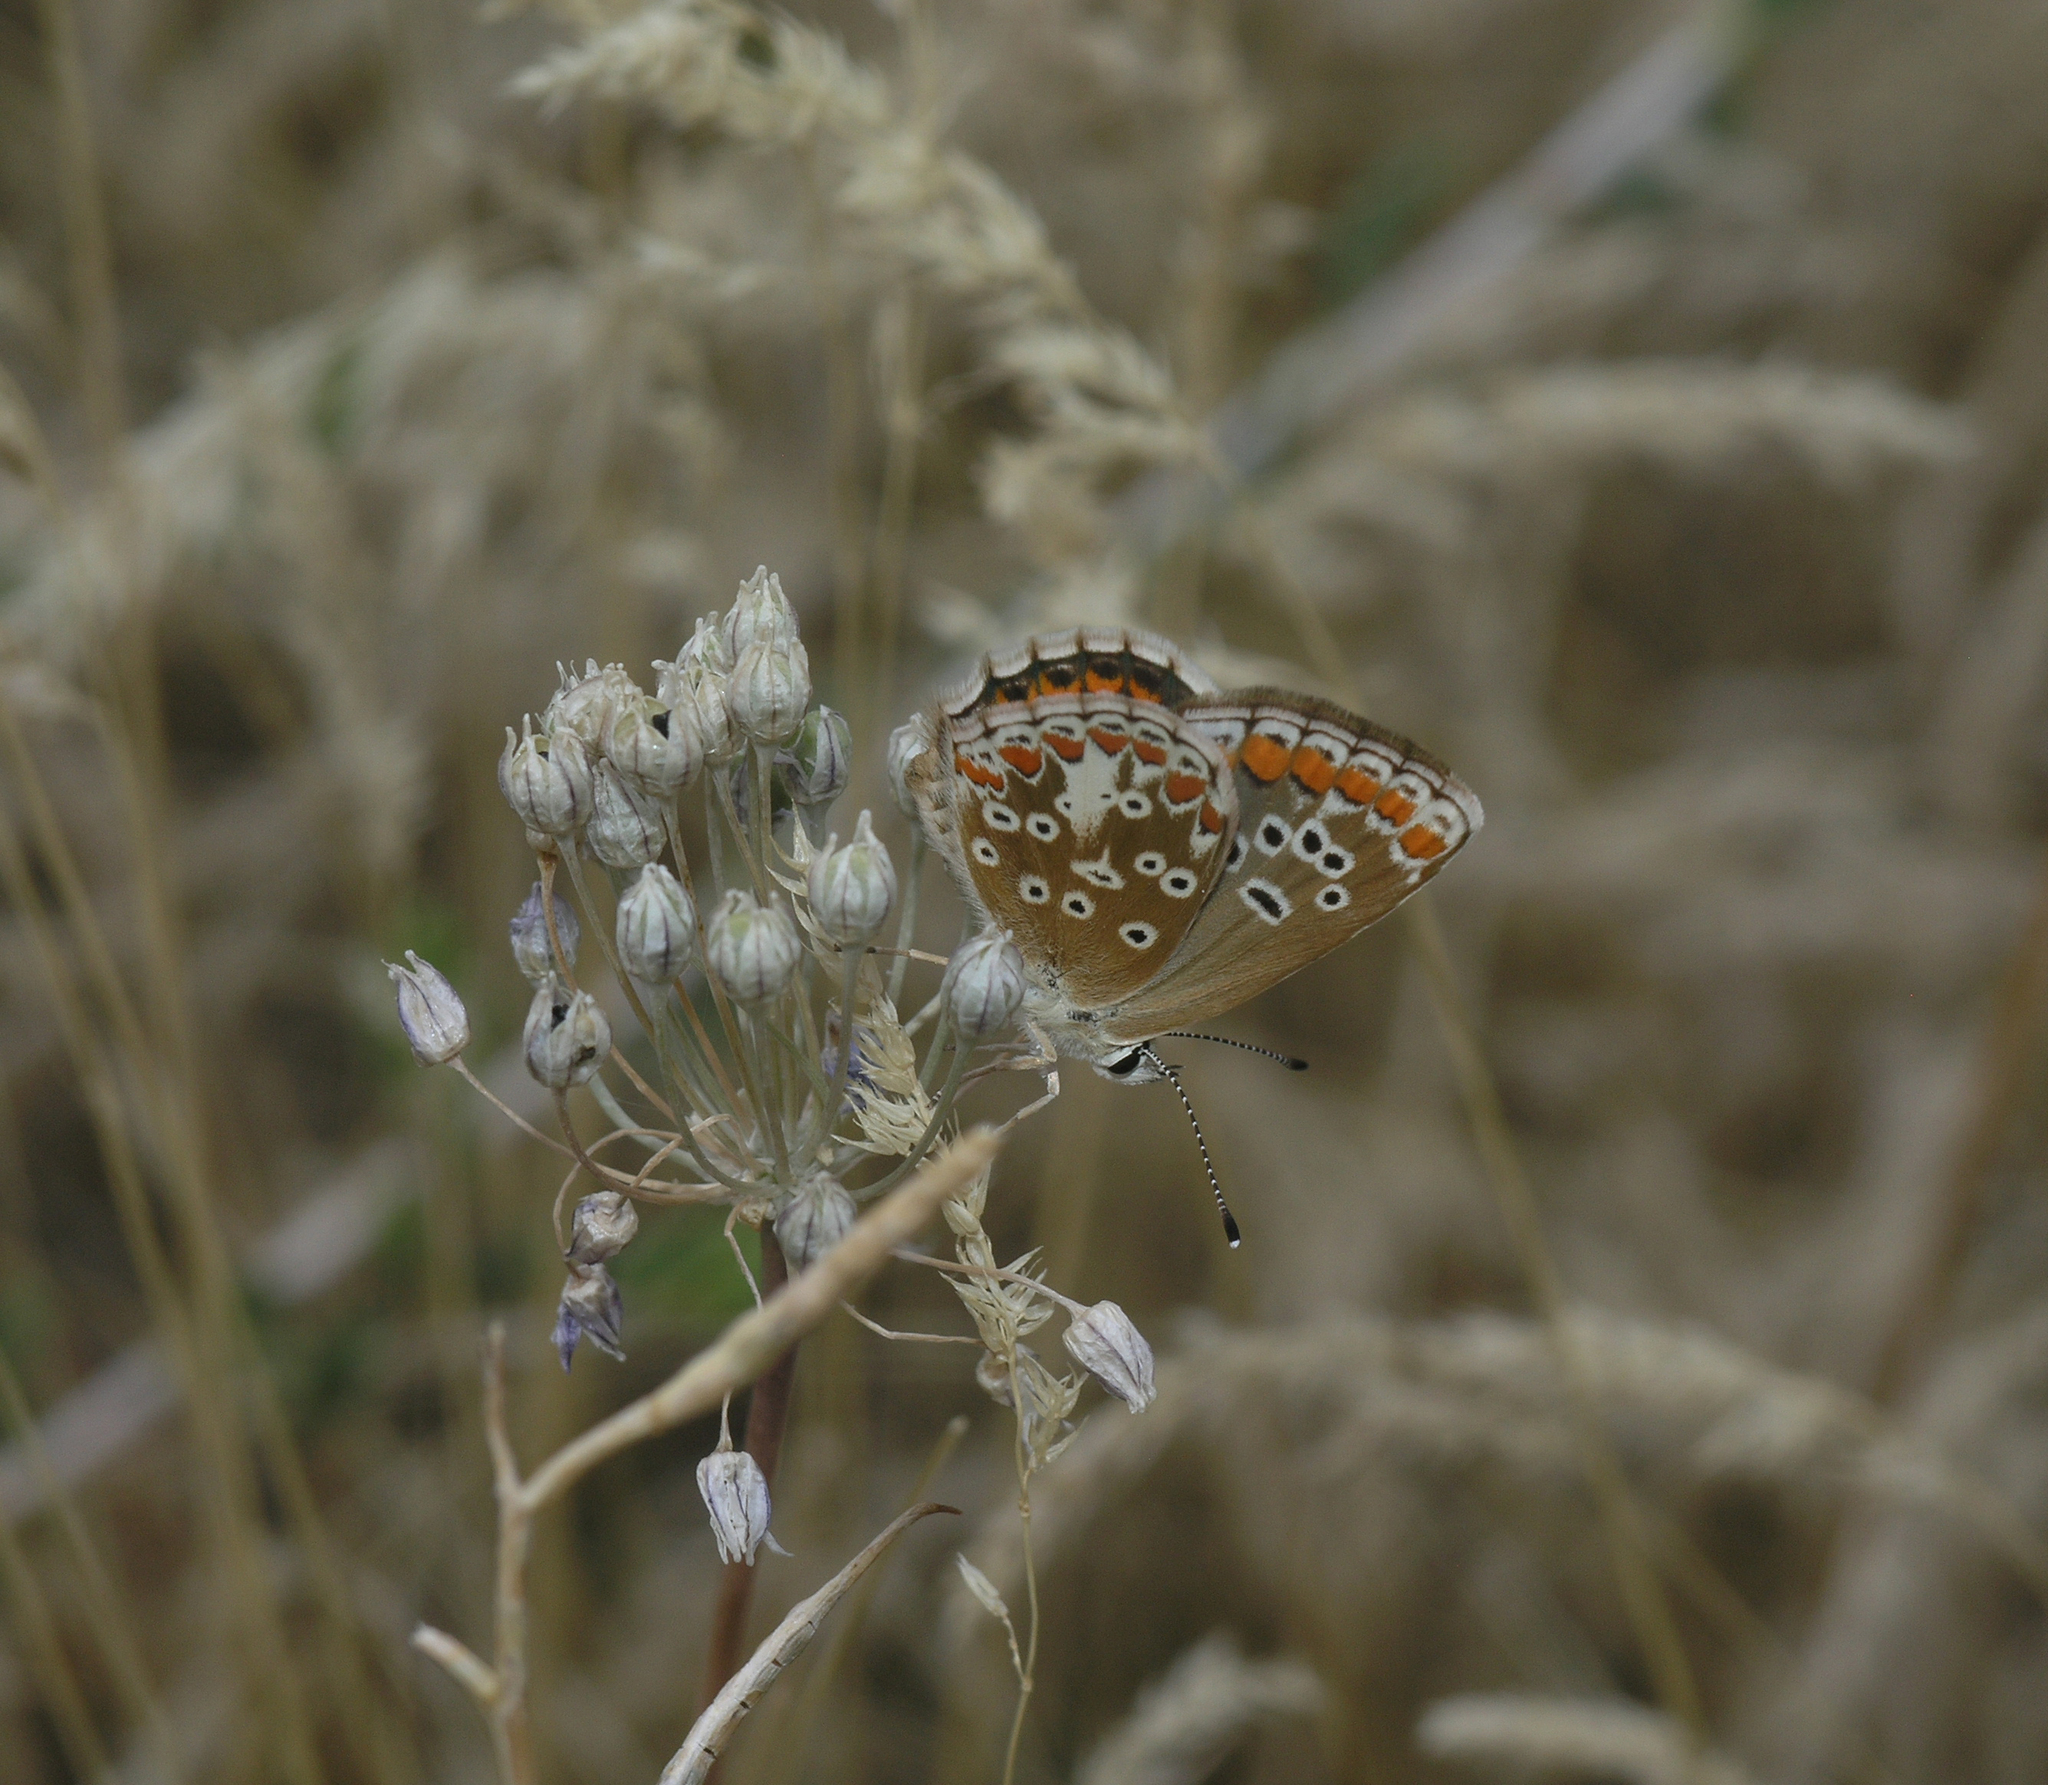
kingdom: Animalia
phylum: Arthropoda
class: Insecta
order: Lepidoptera
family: Lycaenidae
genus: Aricia
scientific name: Aricia agestis
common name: Brown argus
